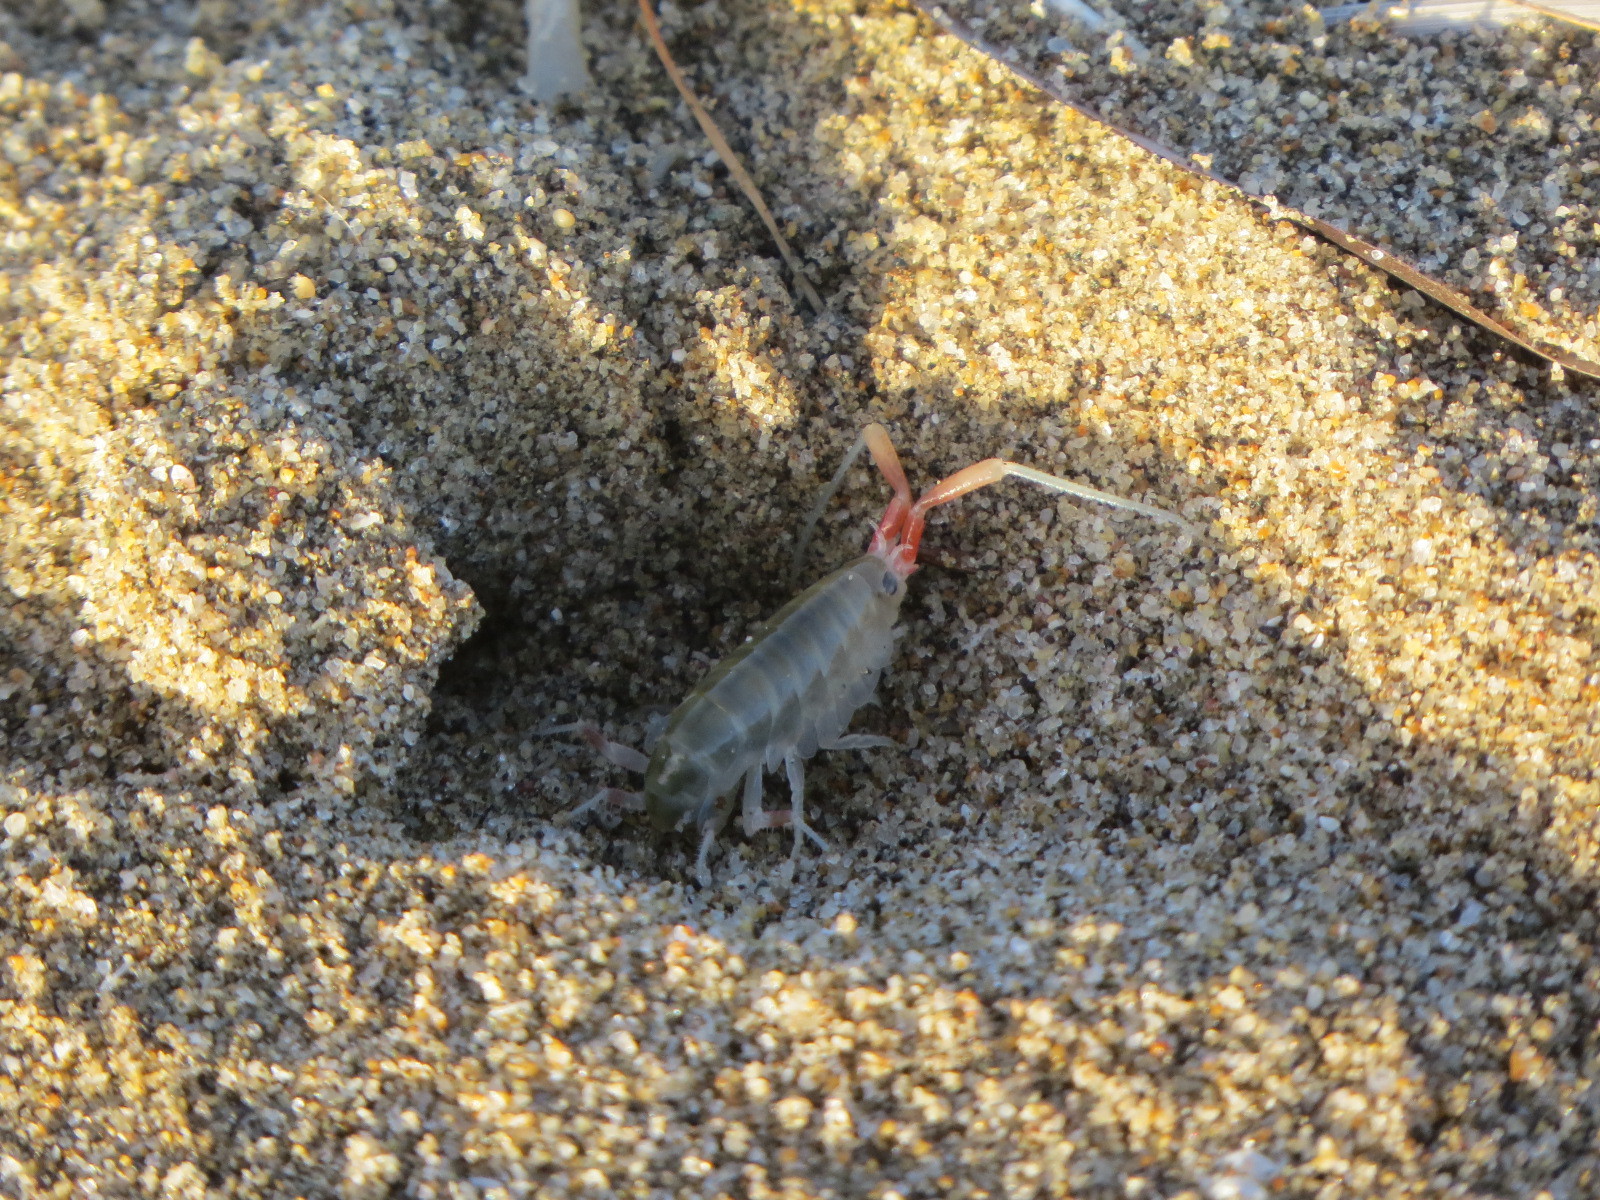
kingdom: Animalia
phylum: Arthropoda
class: Malacostraca
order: Amphipoda
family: Talitridae
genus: Megalorchestia
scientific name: Megalorchestia californiana
